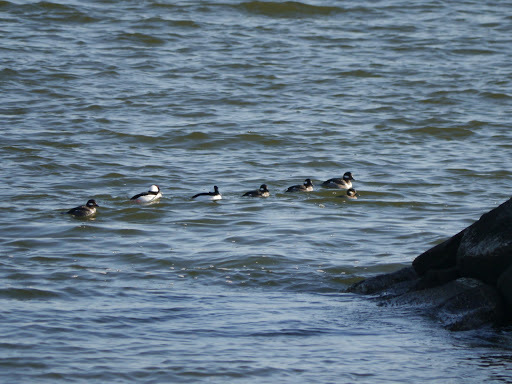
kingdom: Animalia
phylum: Chordata
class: Aves
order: Anseriformes
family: Anatidae
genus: Bucephala
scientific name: Bucephala albeola
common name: Bufflehead
